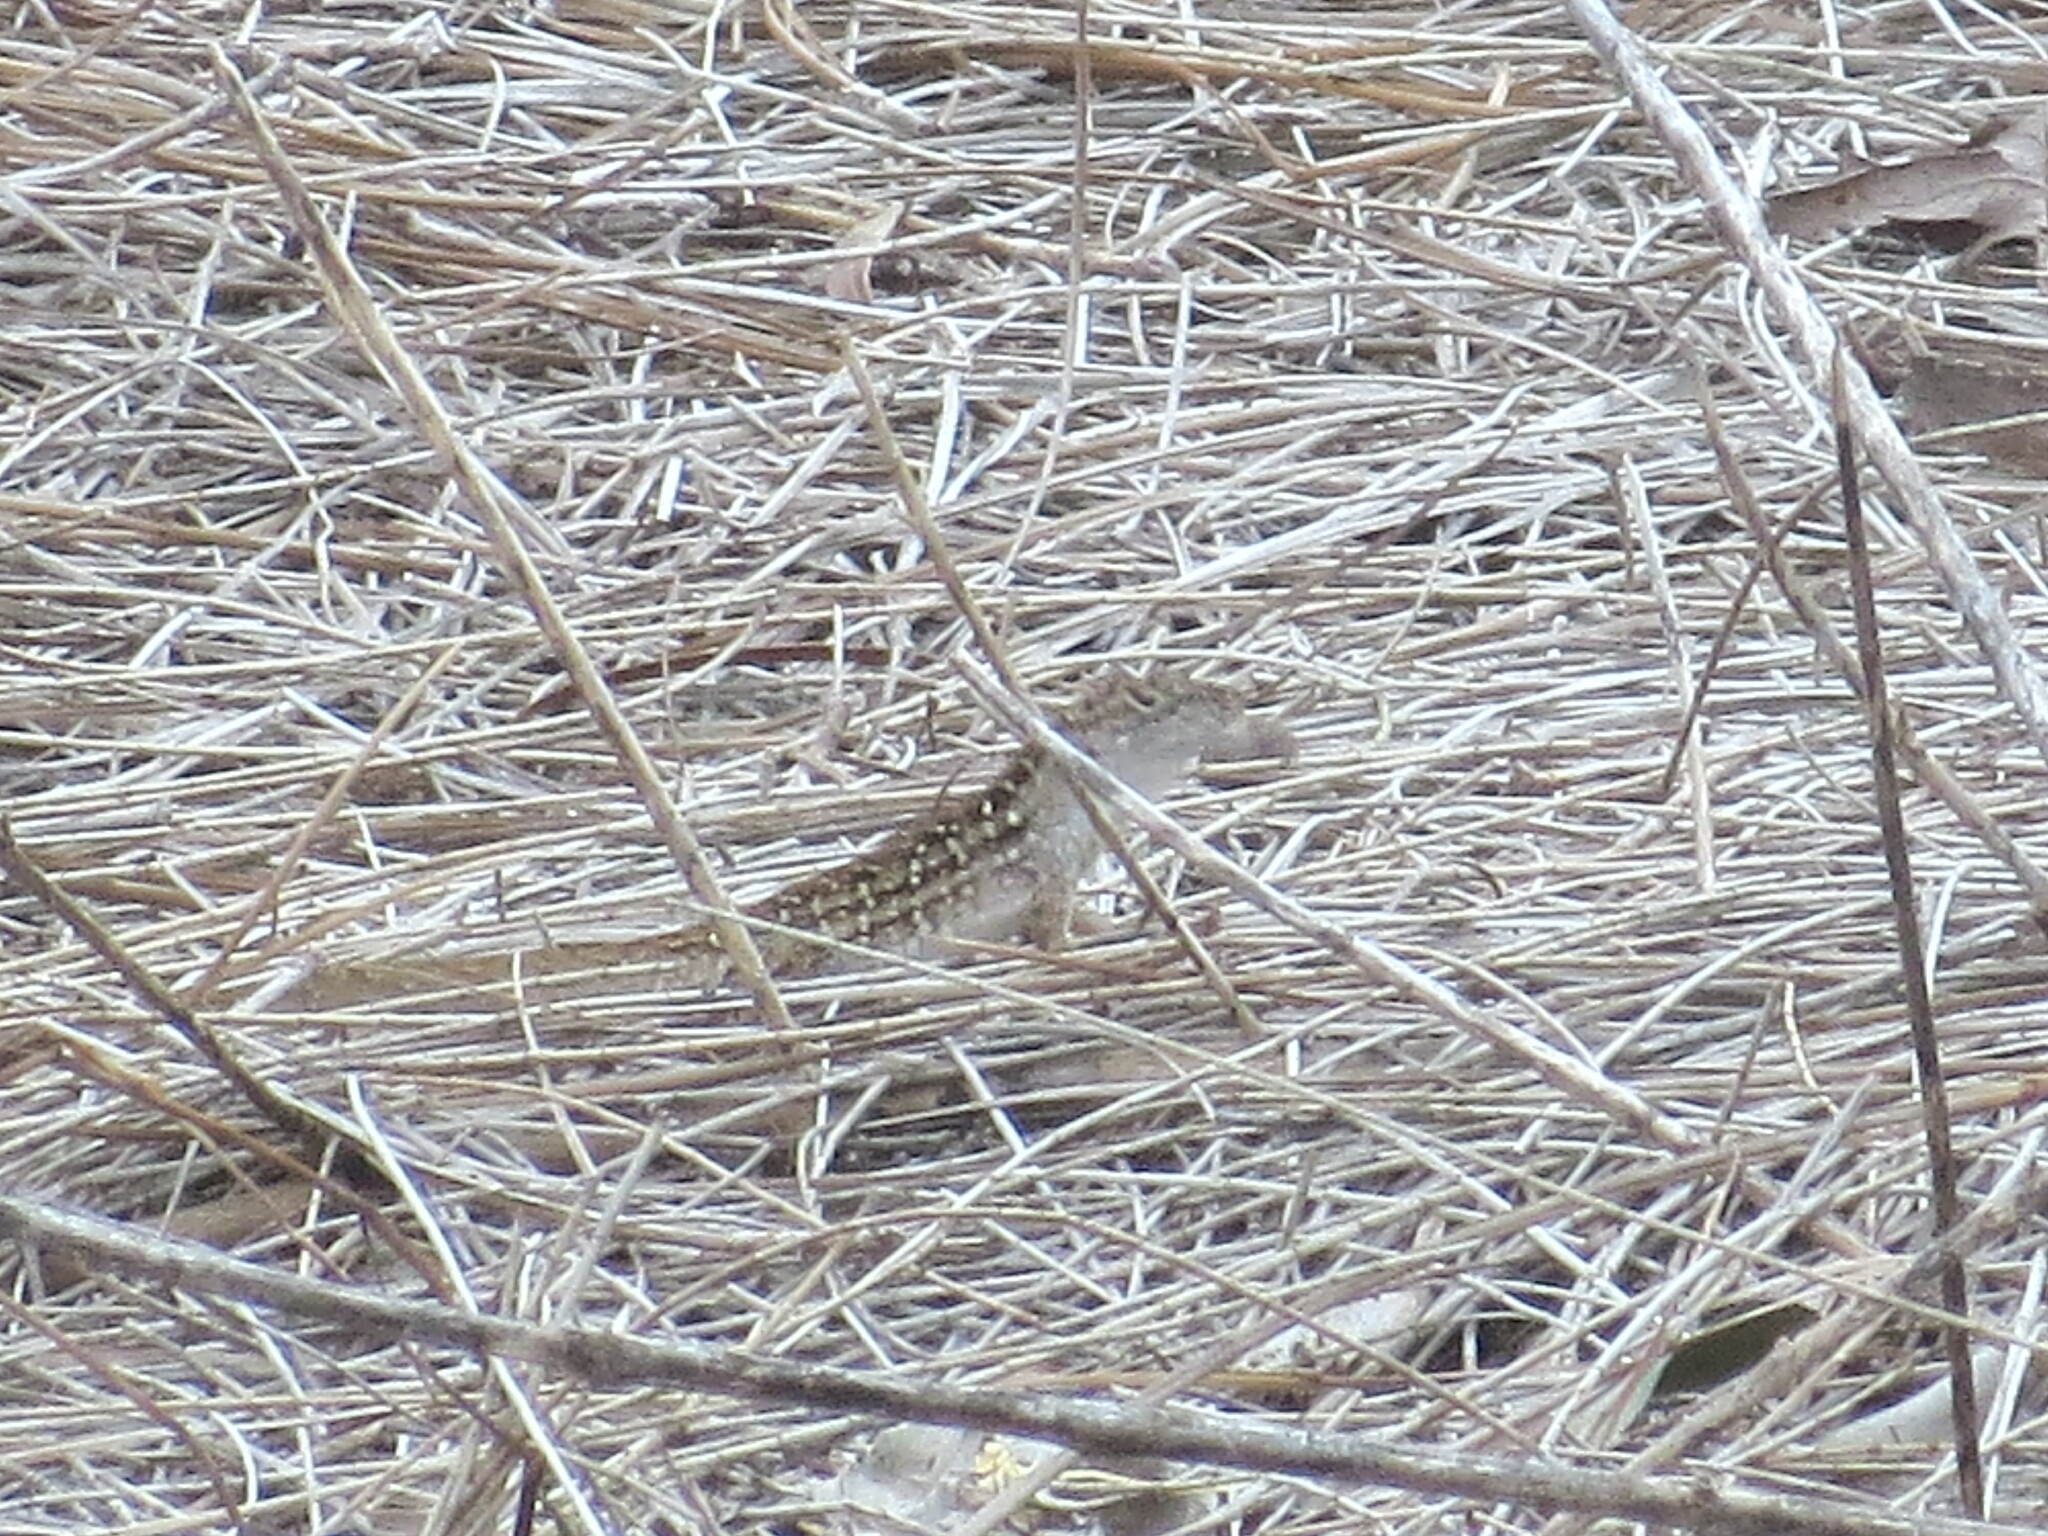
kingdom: Animalia
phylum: Chordata
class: Squamata
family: Dactyloidae
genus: Anolis
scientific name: Anolis sagrei
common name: Brown anole
